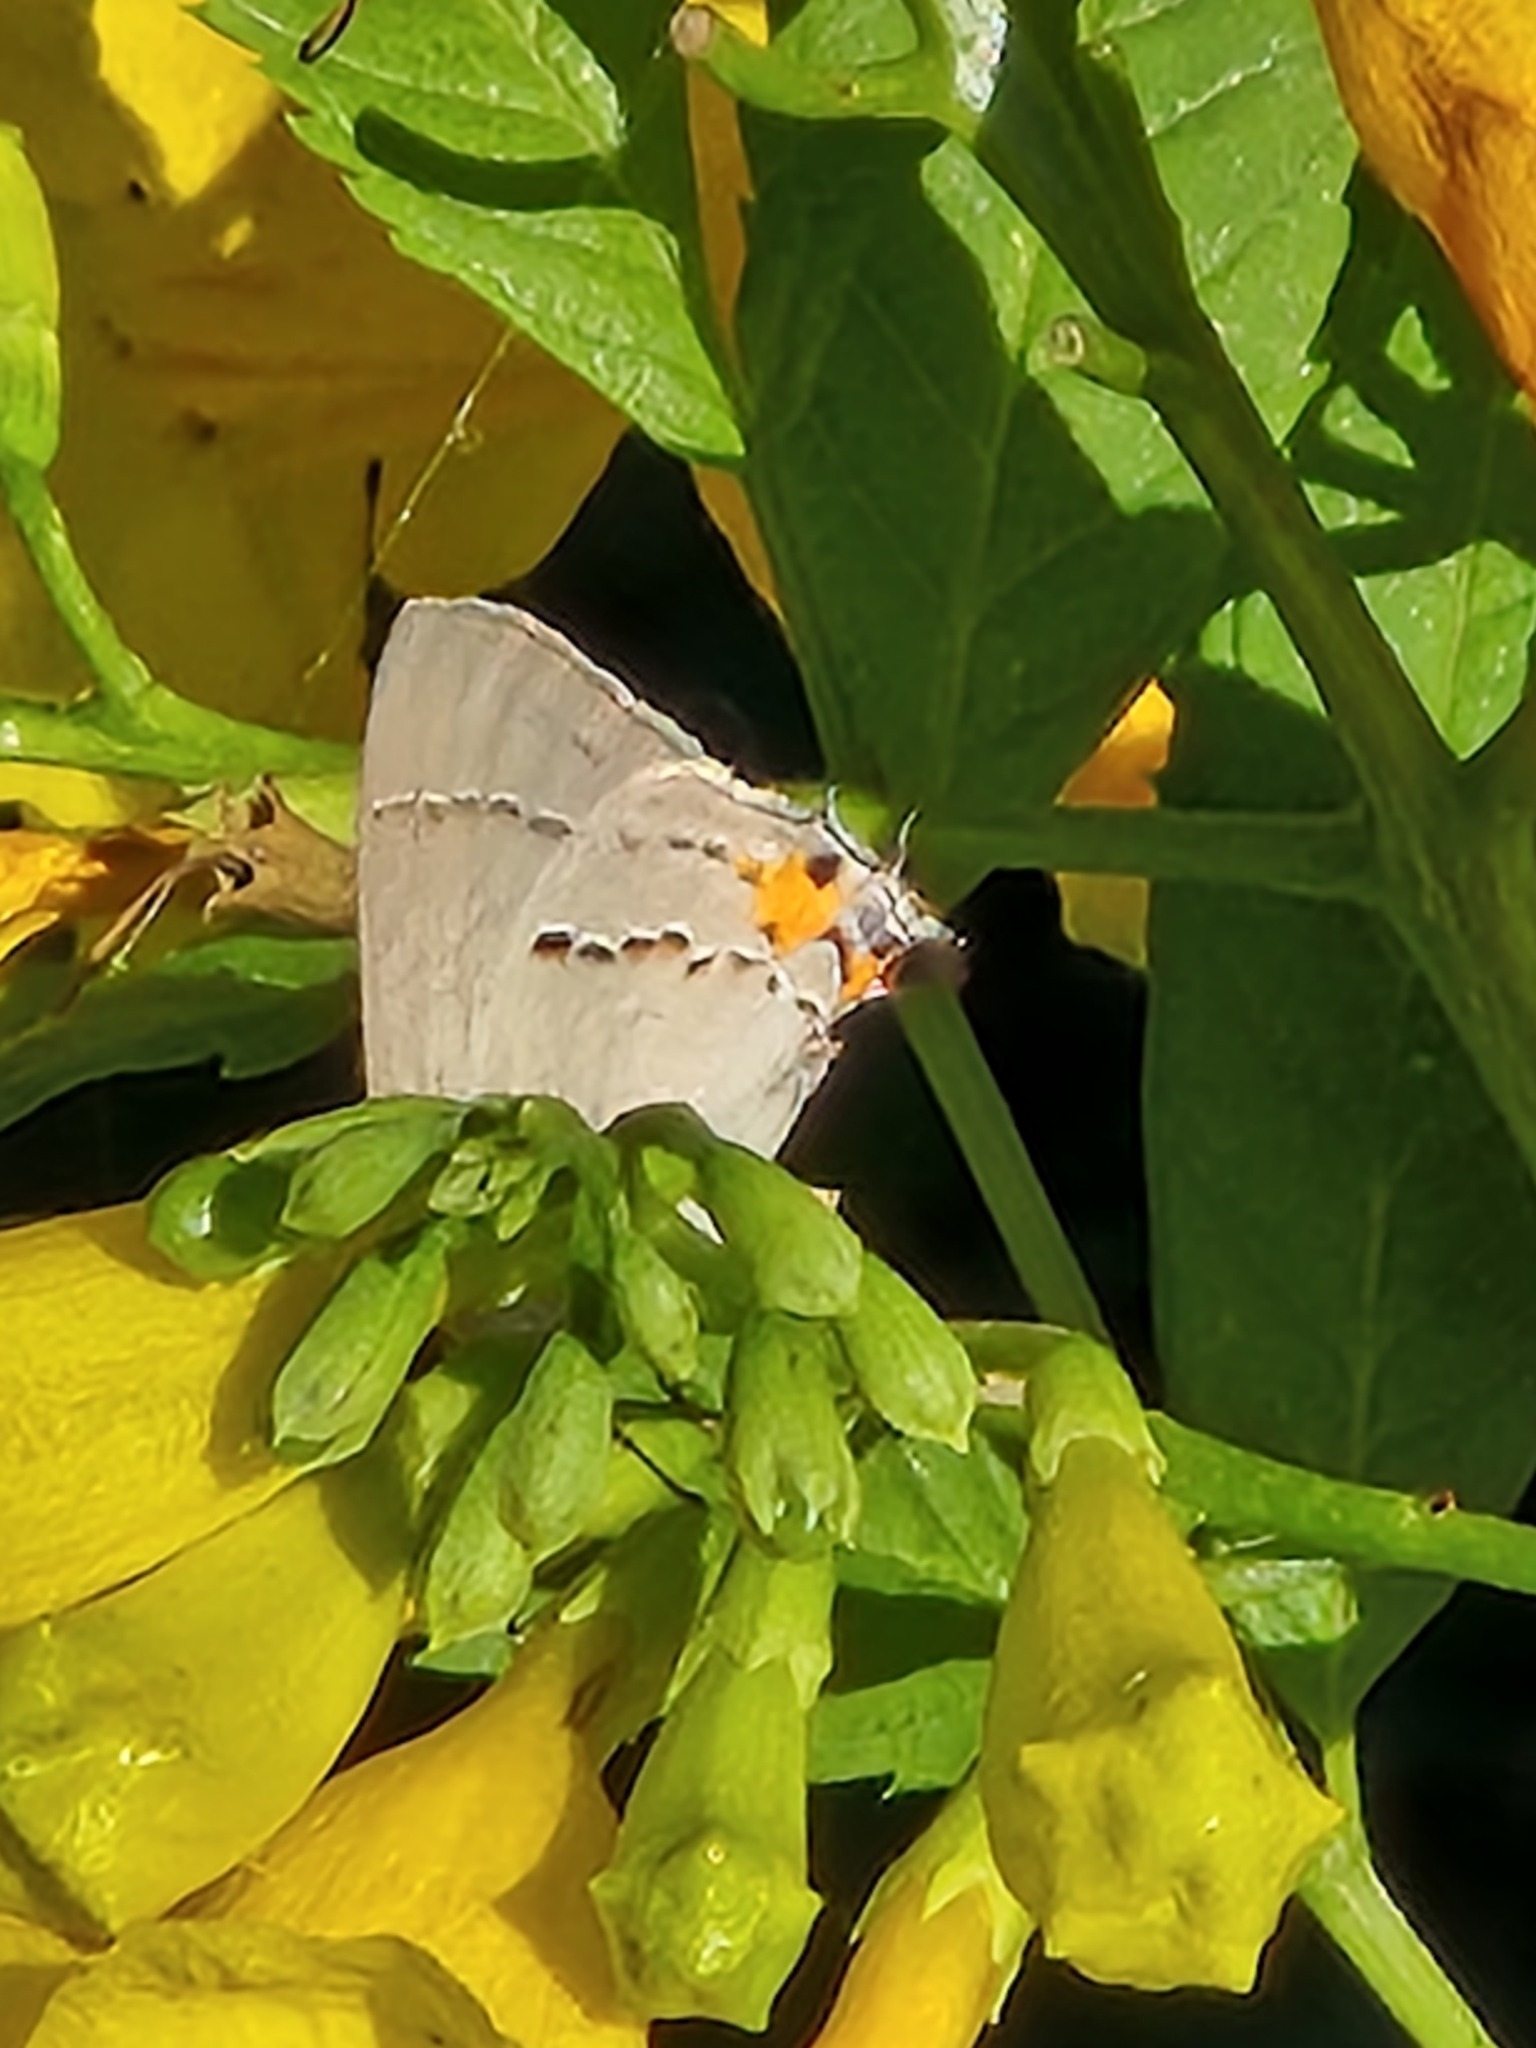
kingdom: Animalia
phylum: Arthropoda
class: Insecta
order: Lepidoptera
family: Lycaenidae
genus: Strymon
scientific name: Strymon melinus
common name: Gray hairstreak
